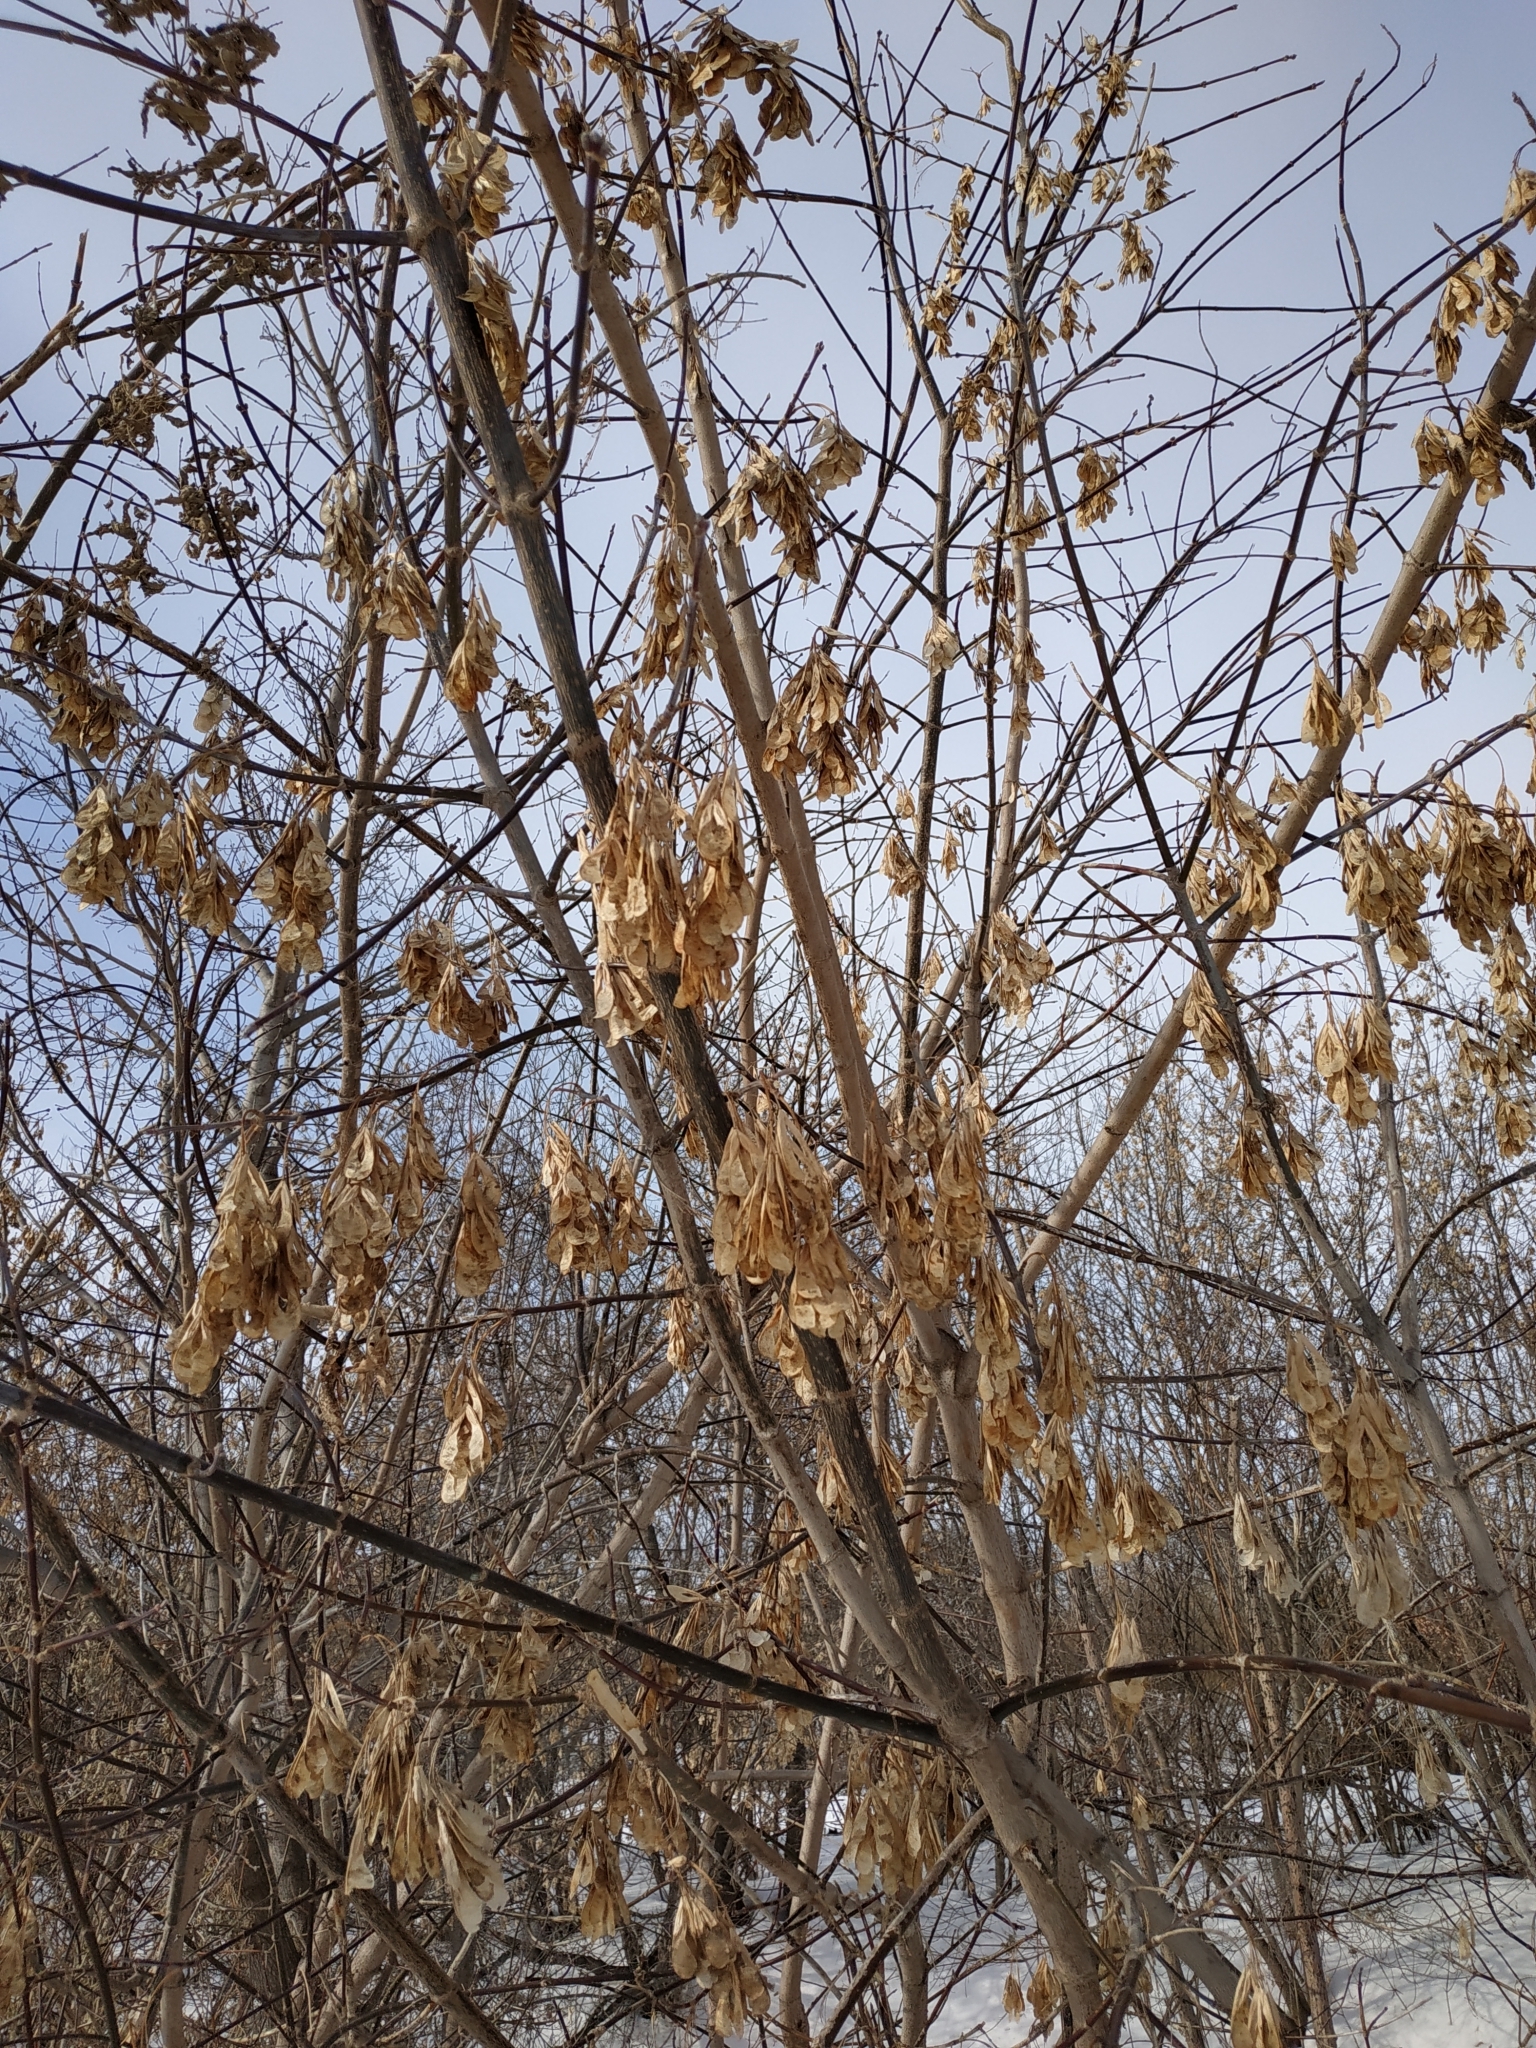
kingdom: Plantae
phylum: Tracheophyta
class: Magnoliopsida
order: Sapindales
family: Sapindaceae
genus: Acer
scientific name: Acer negundo
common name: Ashleaf maple
